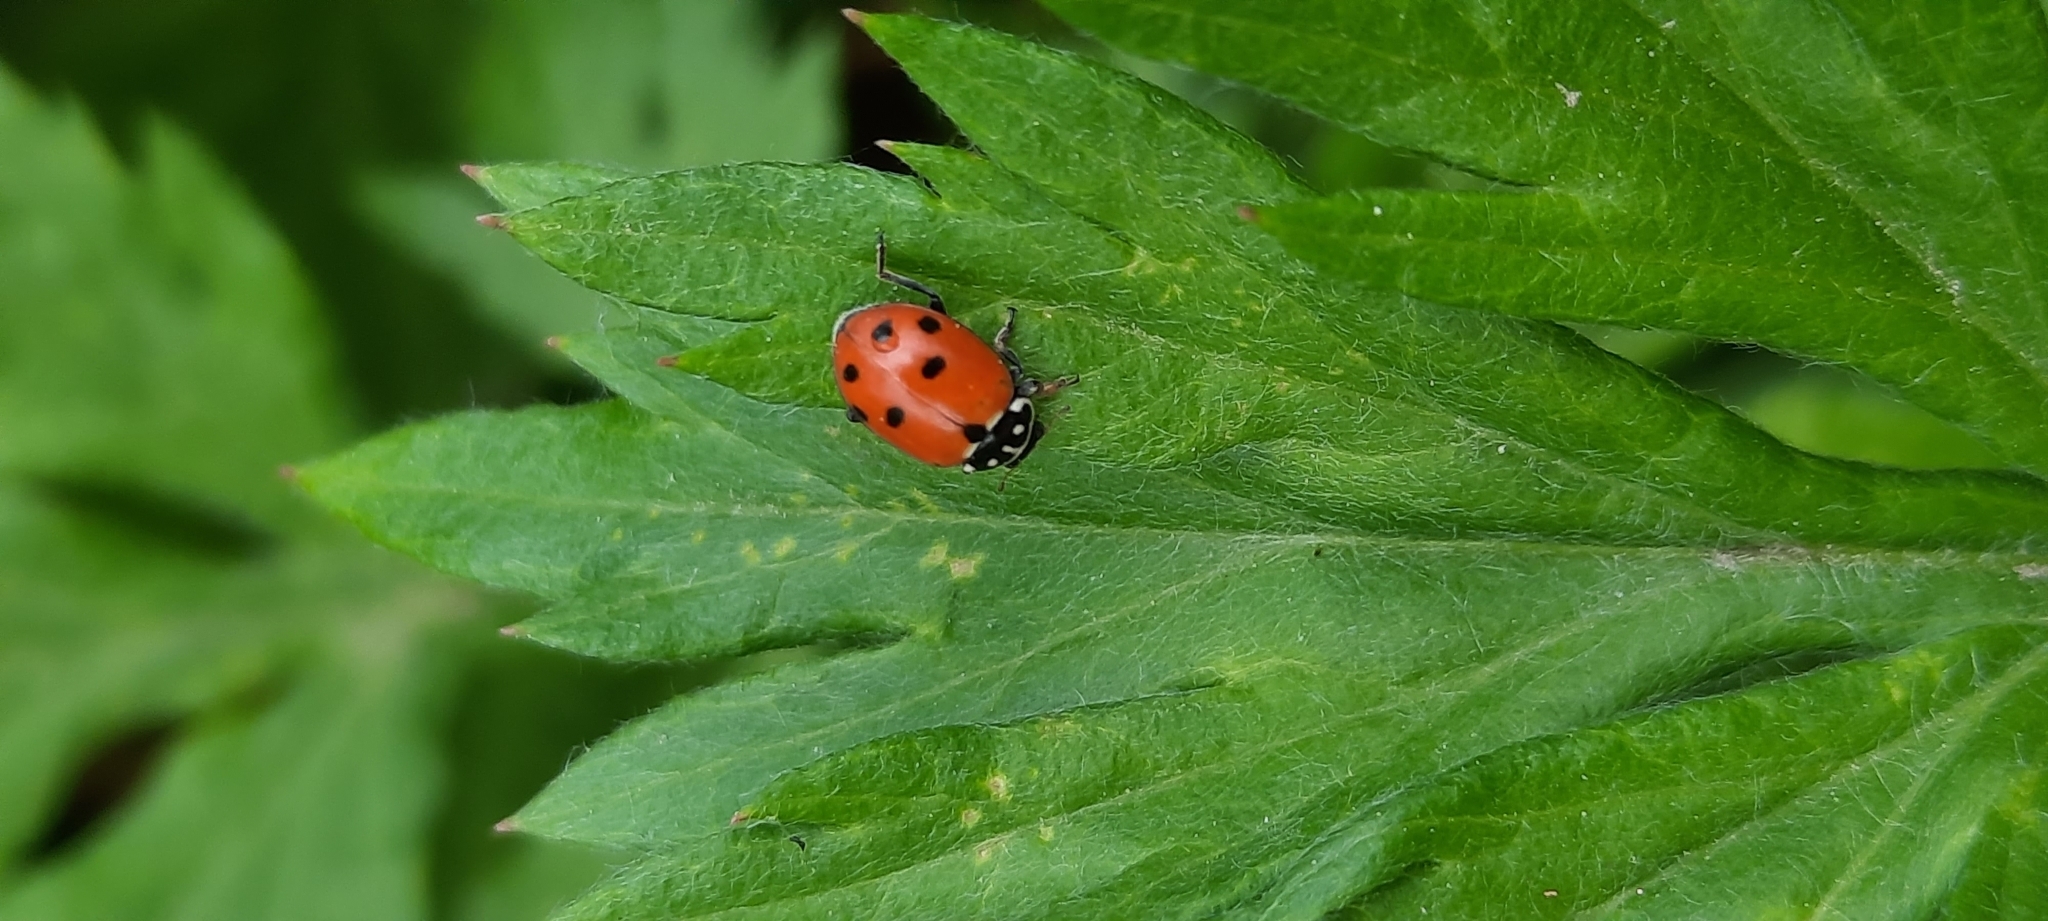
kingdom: Animalia
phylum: Arthropoda
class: Insecta
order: Coleoptera
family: Coccinellidae
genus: Hippodamia
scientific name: Hippodamia variegata
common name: Ladybird beetle
